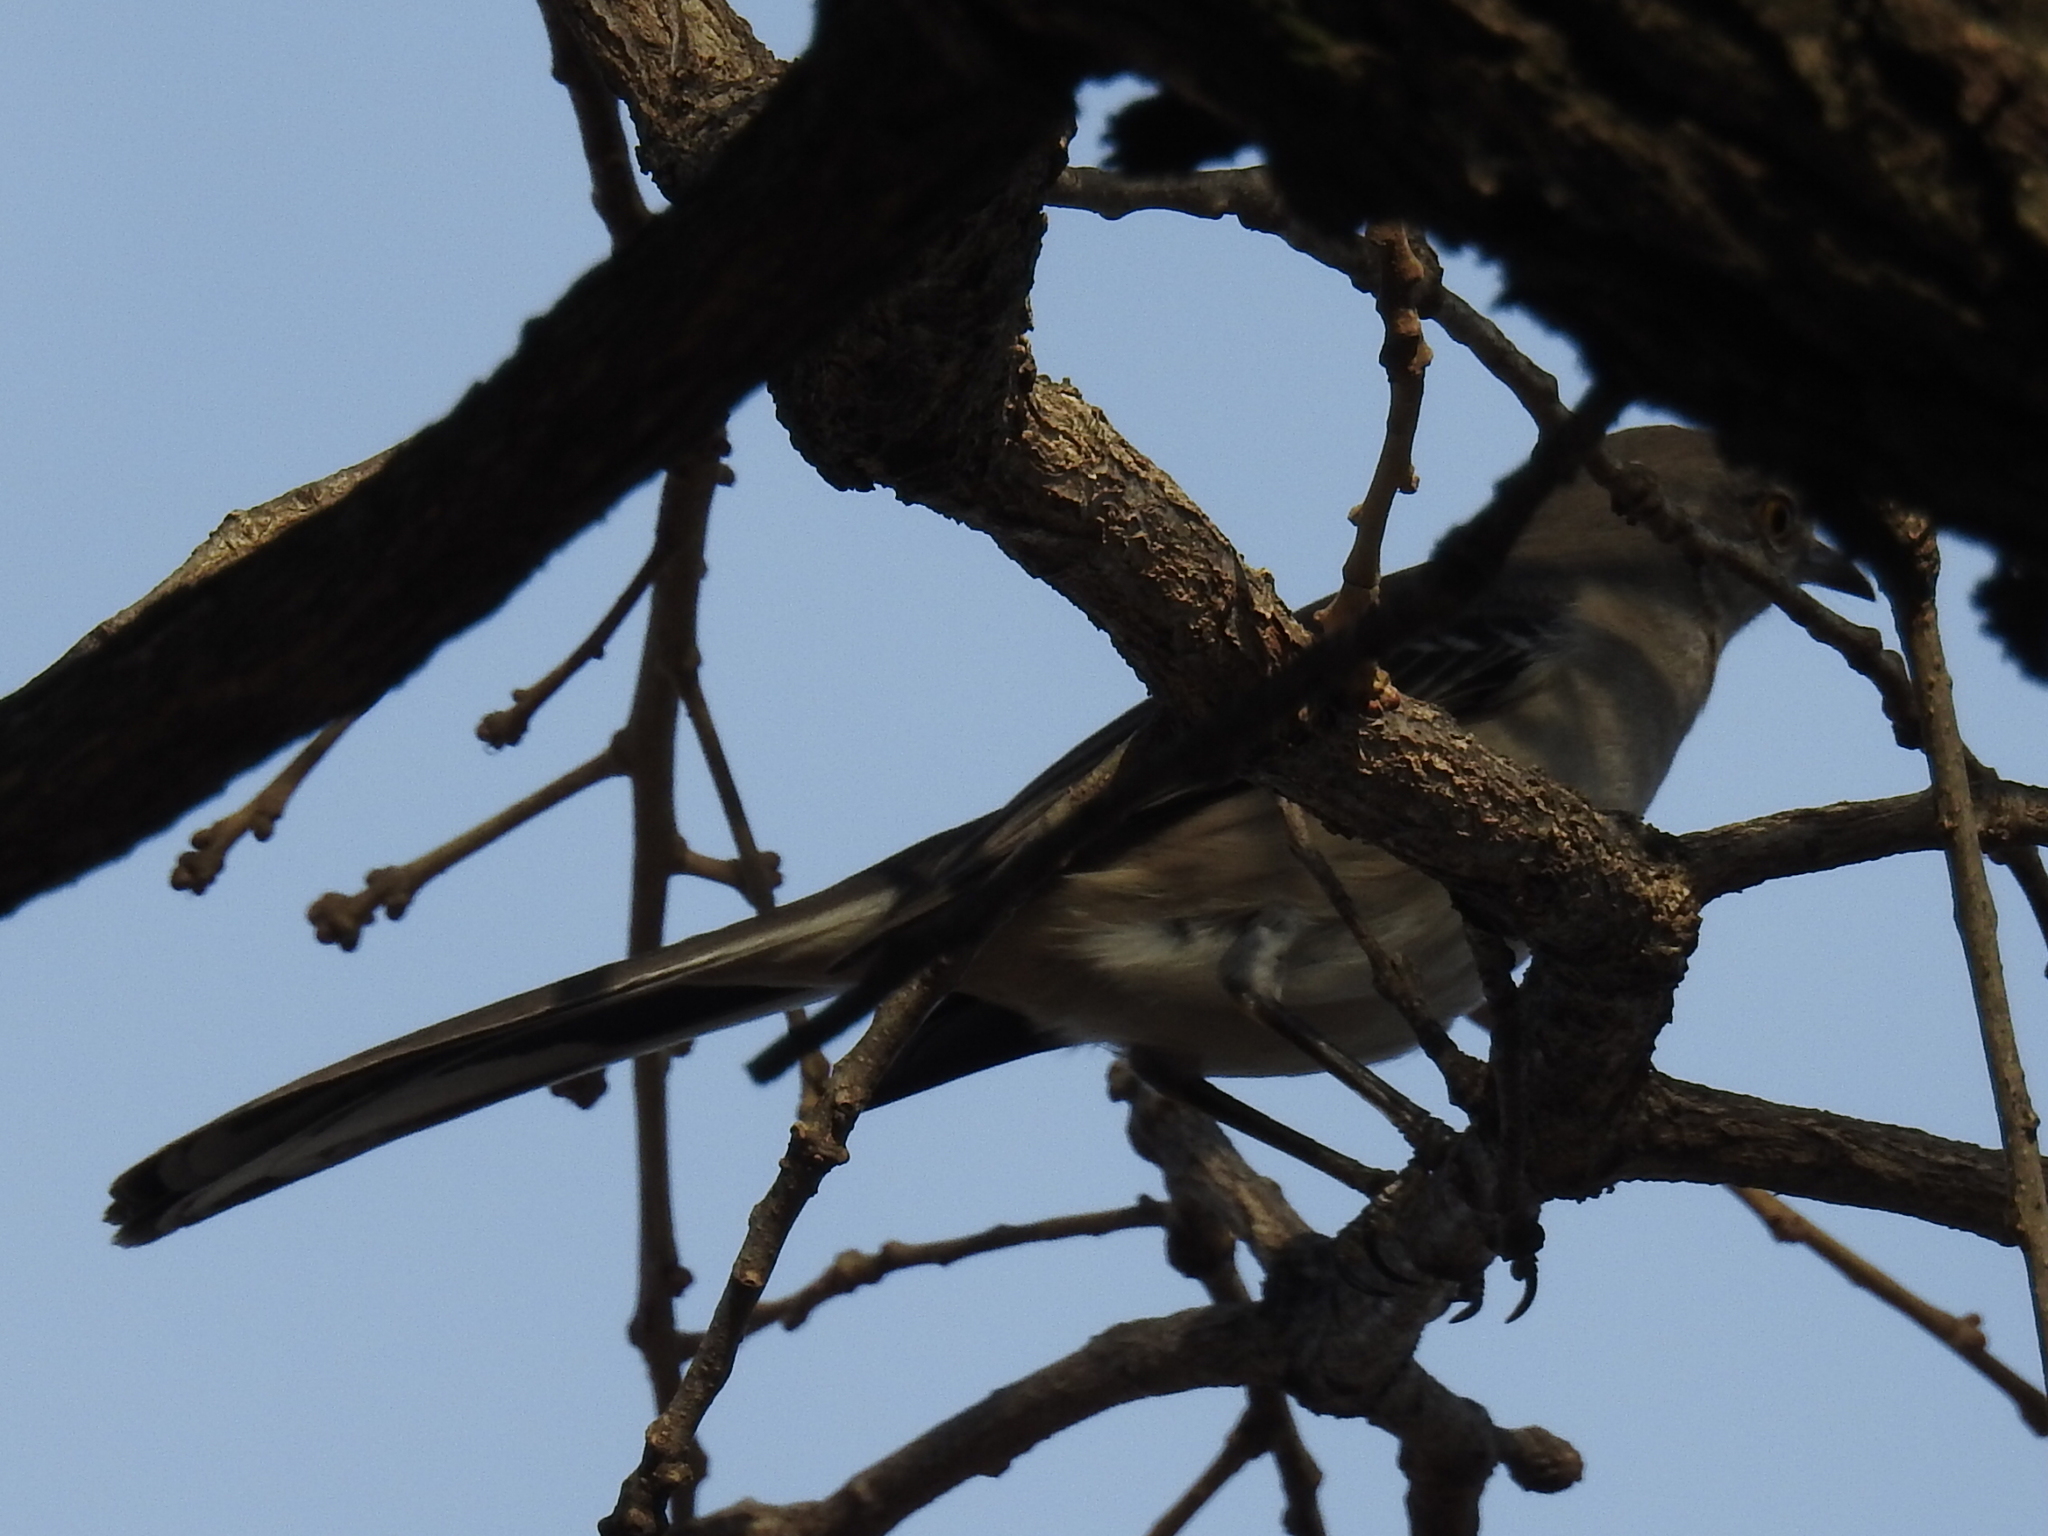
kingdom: Animalia
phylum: Chordata
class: Aves
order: Passeriformes
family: Mimidae
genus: Mimus
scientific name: Mimus polyglottos
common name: Northern mockingbird
